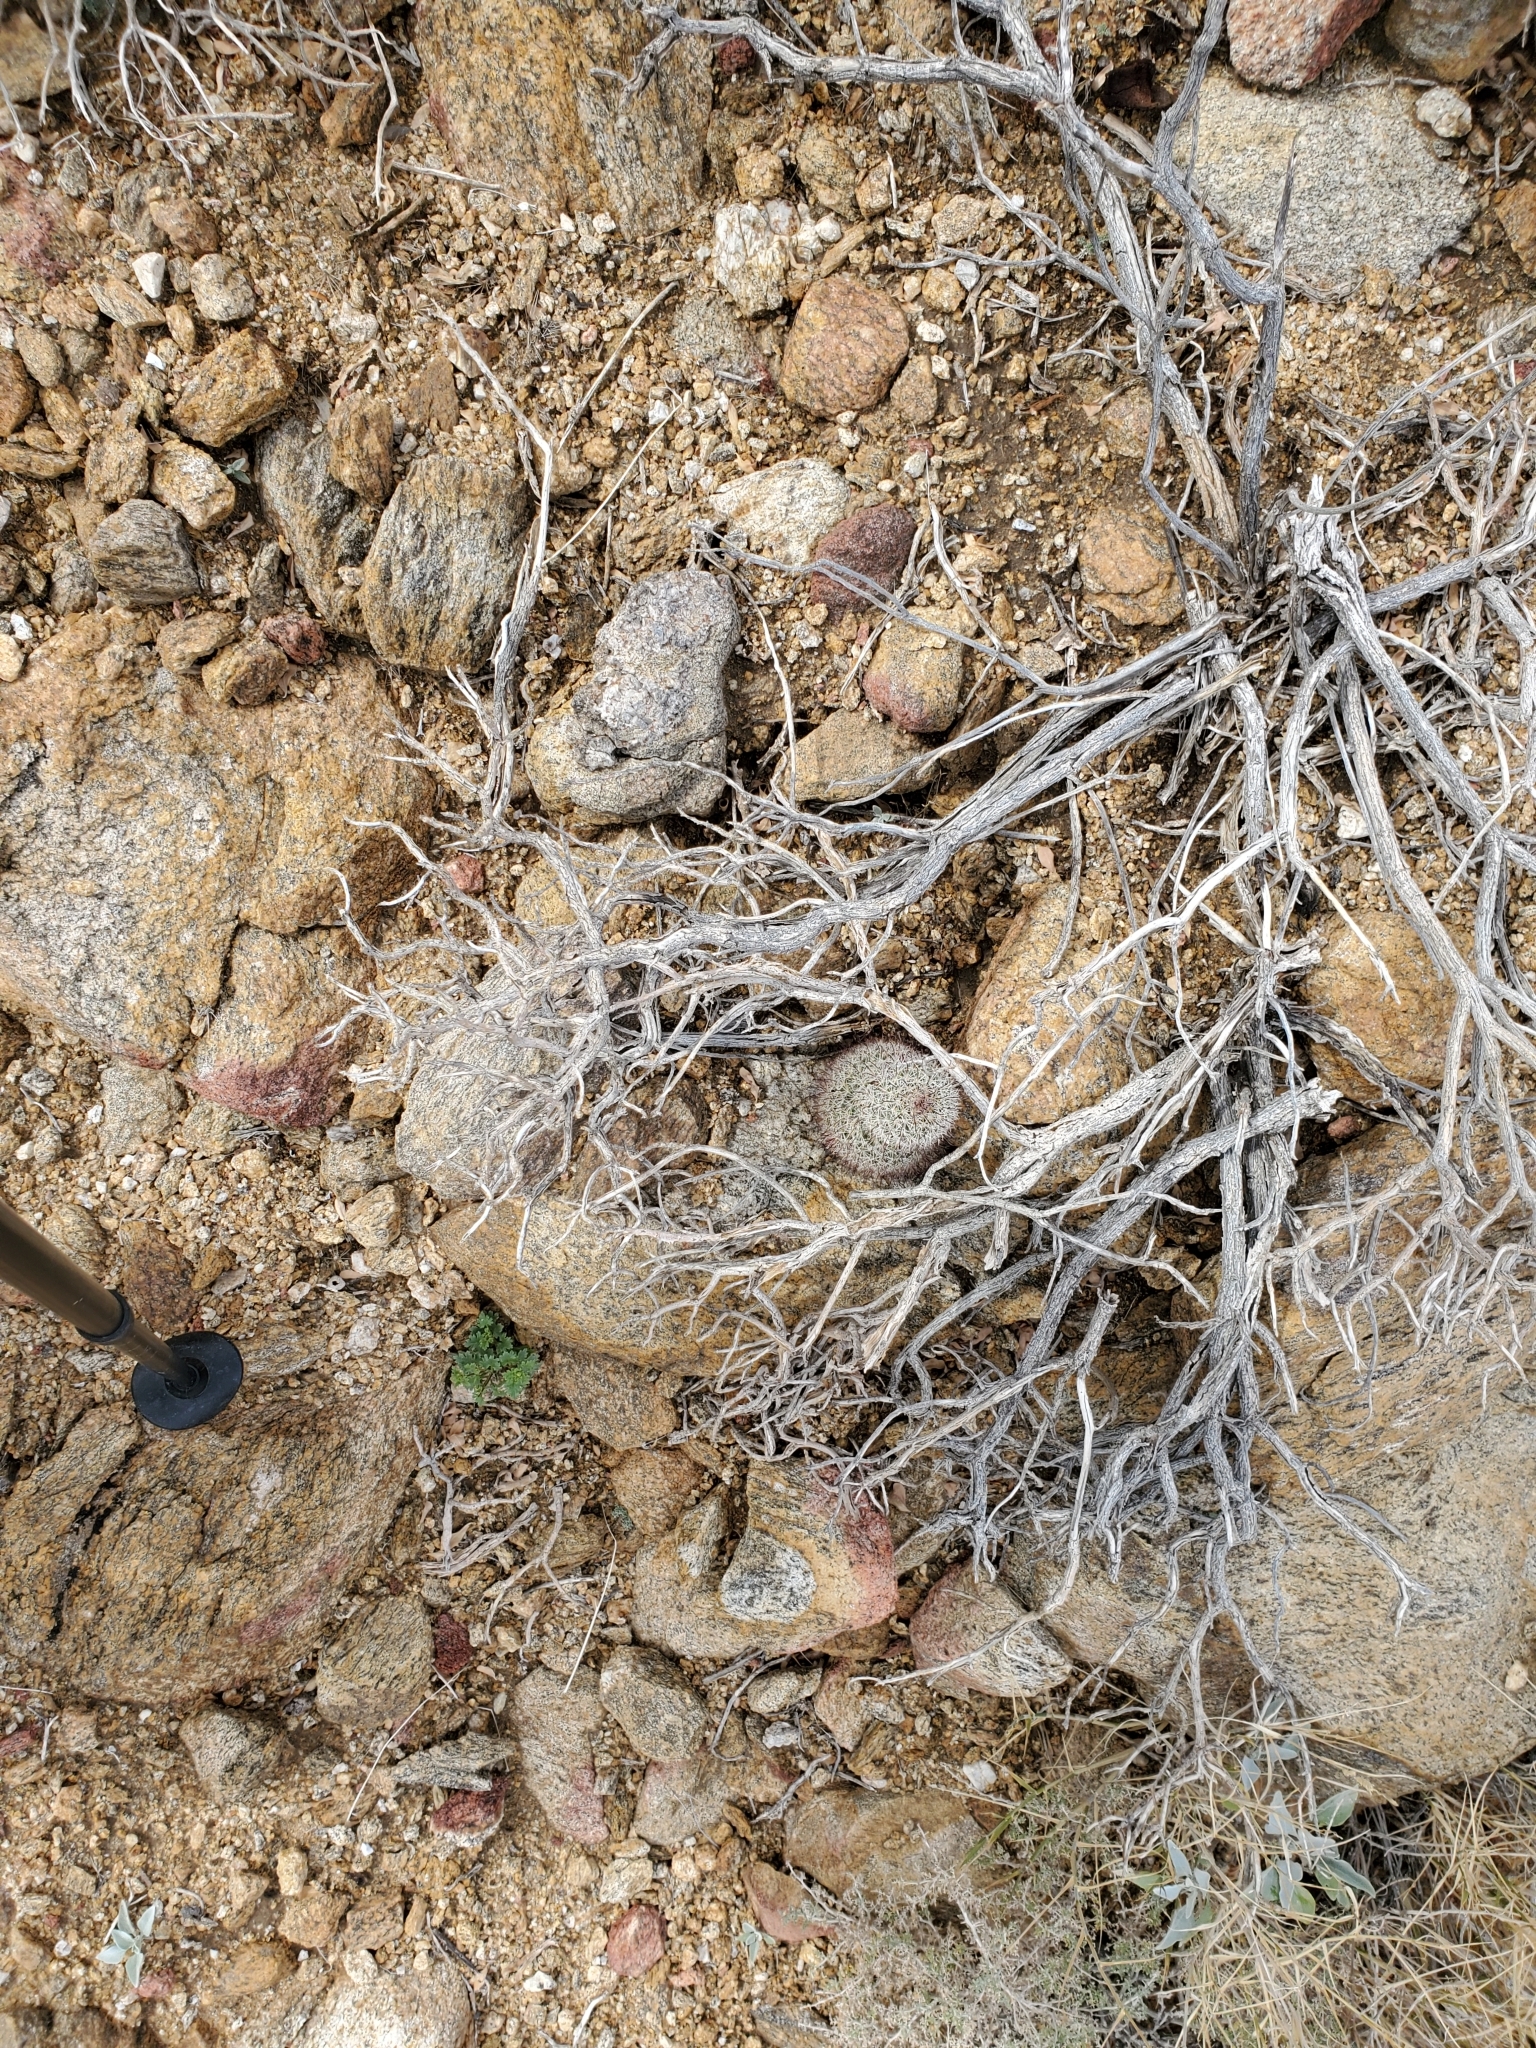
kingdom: Plantae
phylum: Tracheophyta
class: Magnoliopsida
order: Caryophyllales
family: Cactaceae
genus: Cochemiea
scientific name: Cochemiea dioica
